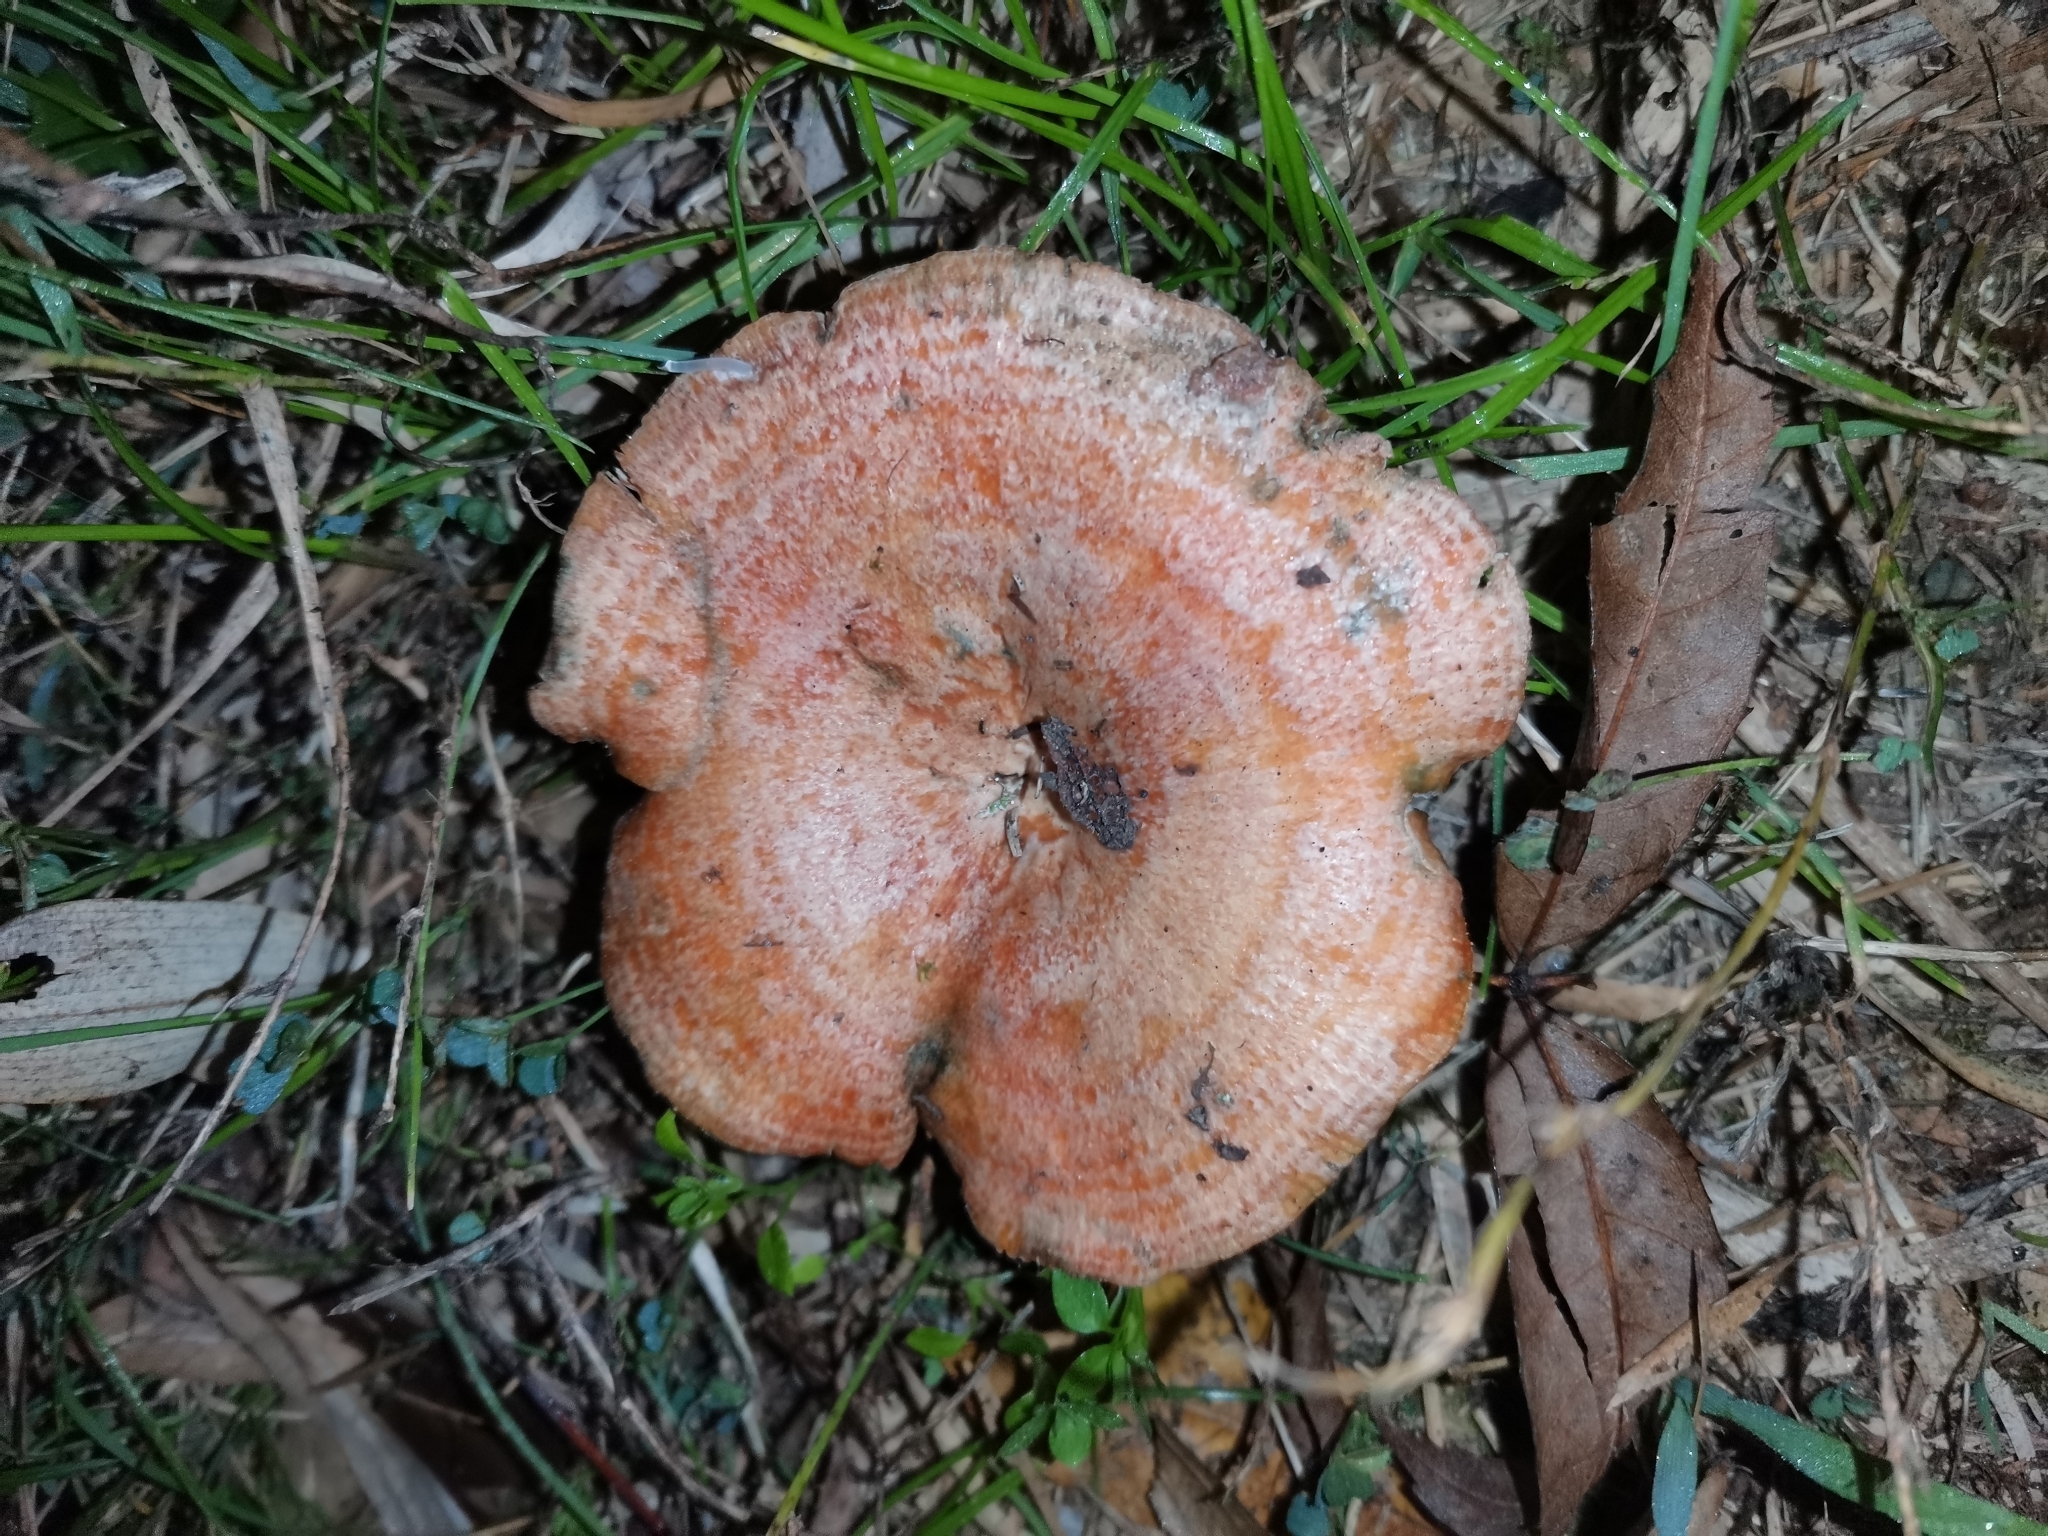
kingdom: Fungi
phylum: Basidiomycota
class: Agaricomycetes
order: Russulales
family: Russulaceae
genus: Lactarius
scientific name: Lactarius sanguifluus
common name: Bloody milkcap
